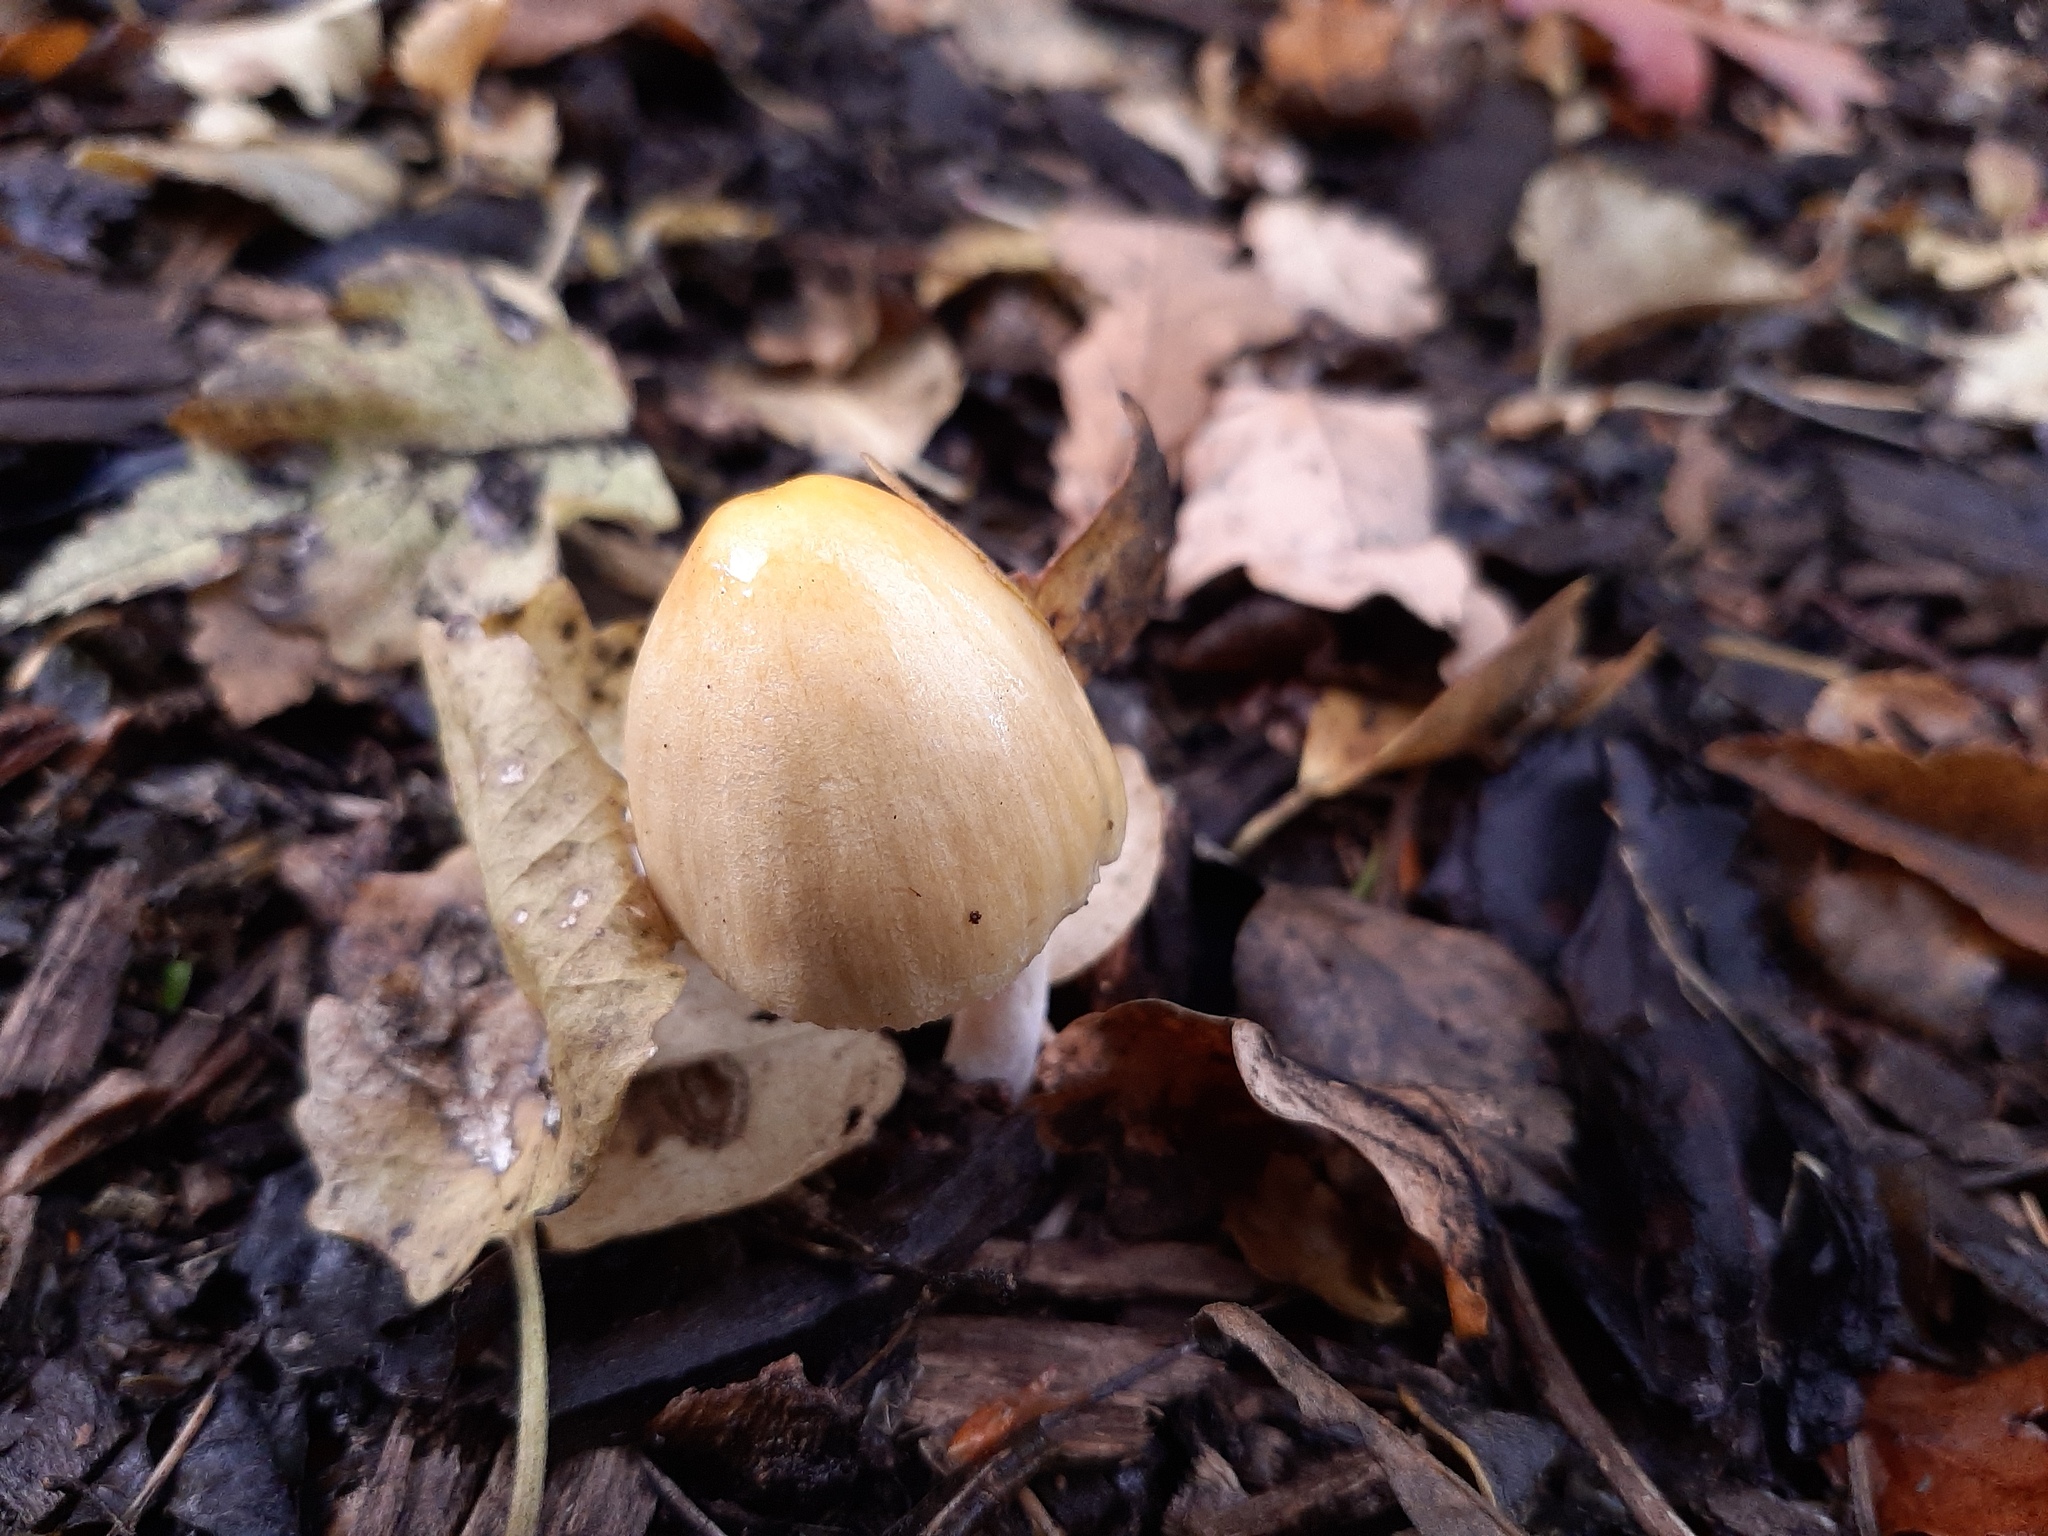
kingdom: Fungi
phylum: Basidiomycota
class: Agaricomycetes
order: Agaricales
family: Bolbitiaceae
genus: Bolbitius
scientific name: Bolbitius titubans
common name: Yellow fieldcap
